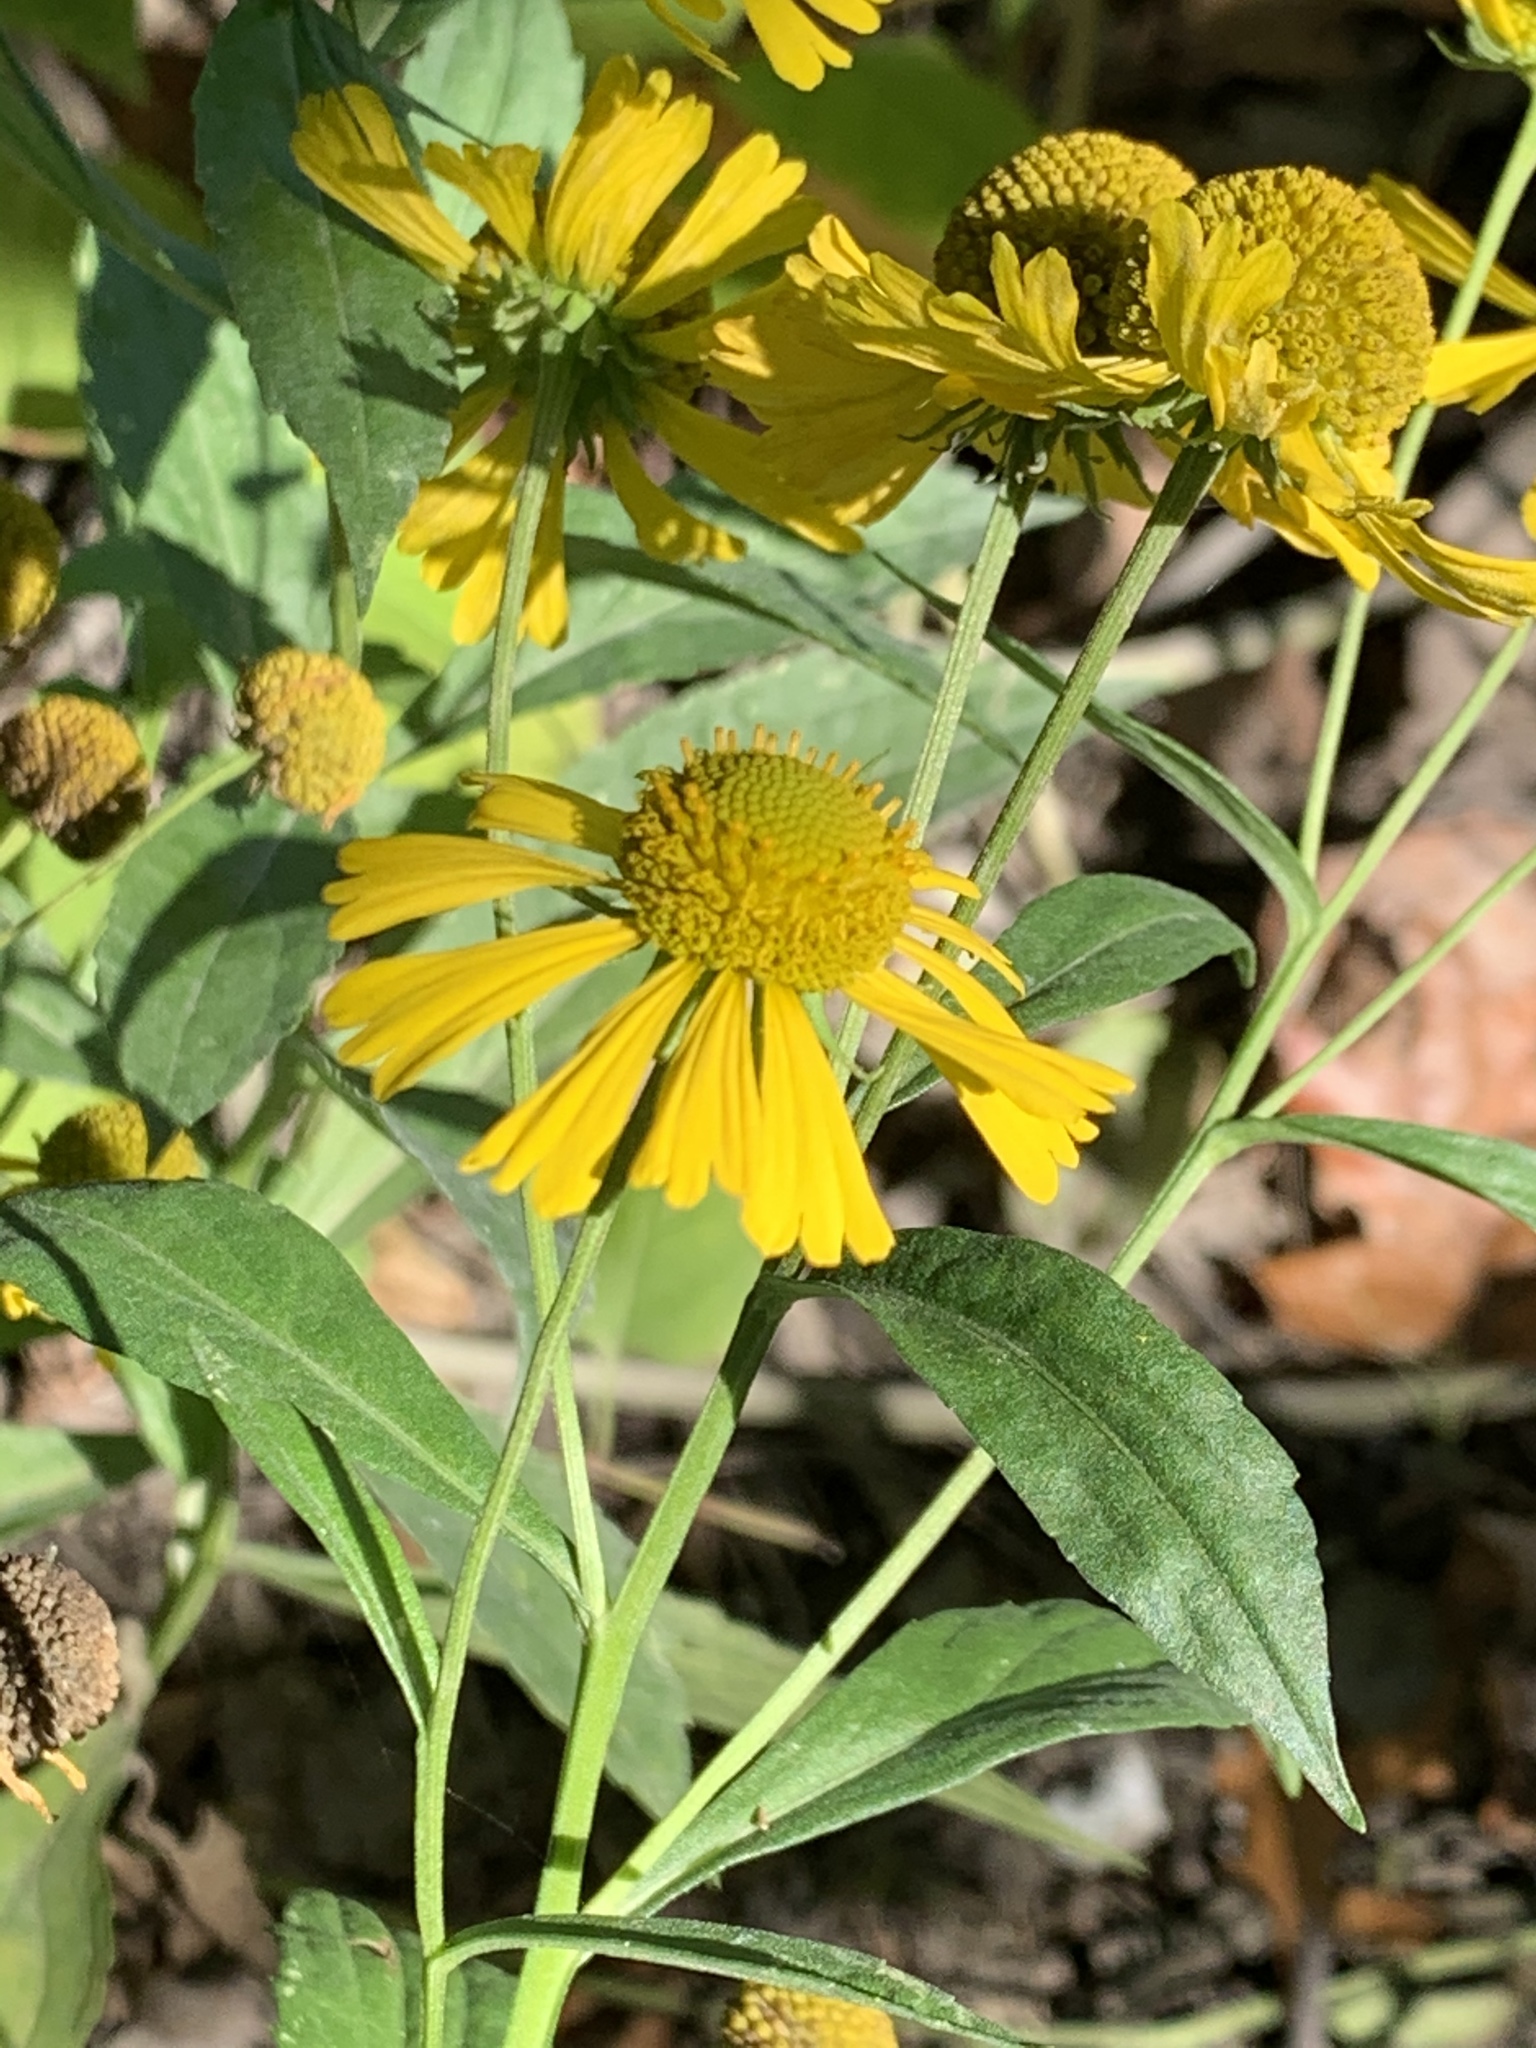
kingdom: Plantae
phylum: Tracheophyta
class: Magnoliopsida
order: Asterales
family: Asteraceae
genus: Helenium
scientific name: Helenium autumnale
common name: Sneezeweed
